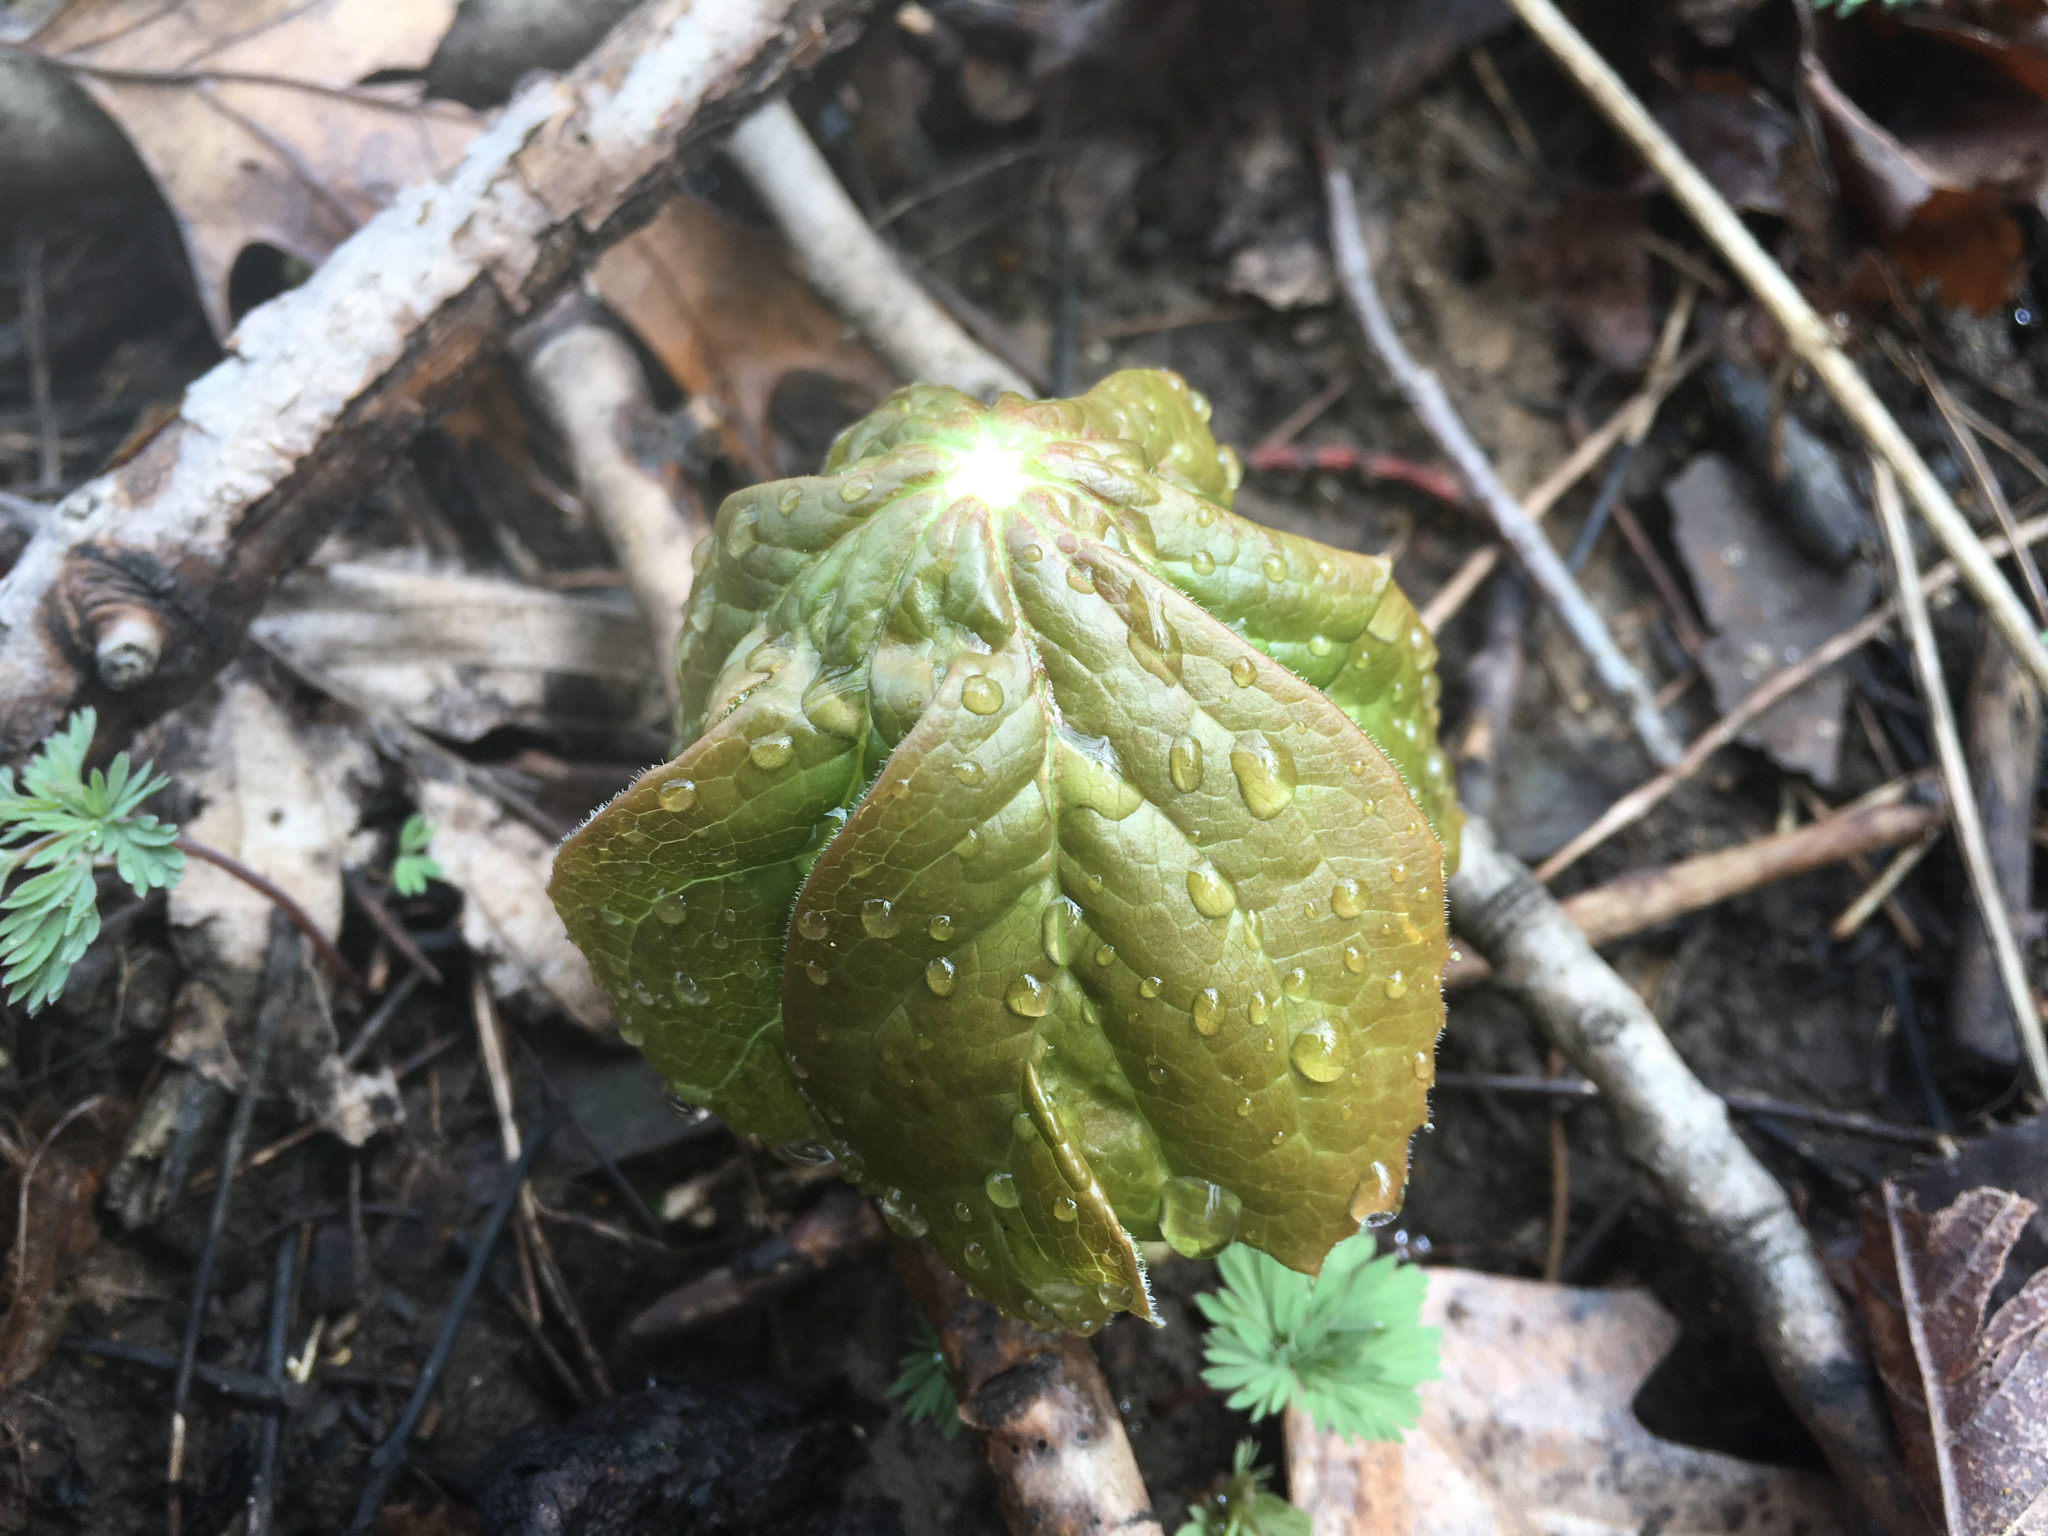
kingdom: Plantae
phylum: Tracheophyta
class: Magnoliopsida
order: Ranunculales
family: Berberidaceae
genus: Podophyllum
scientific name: Podophyllum peltatum
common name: Wild mandrake
